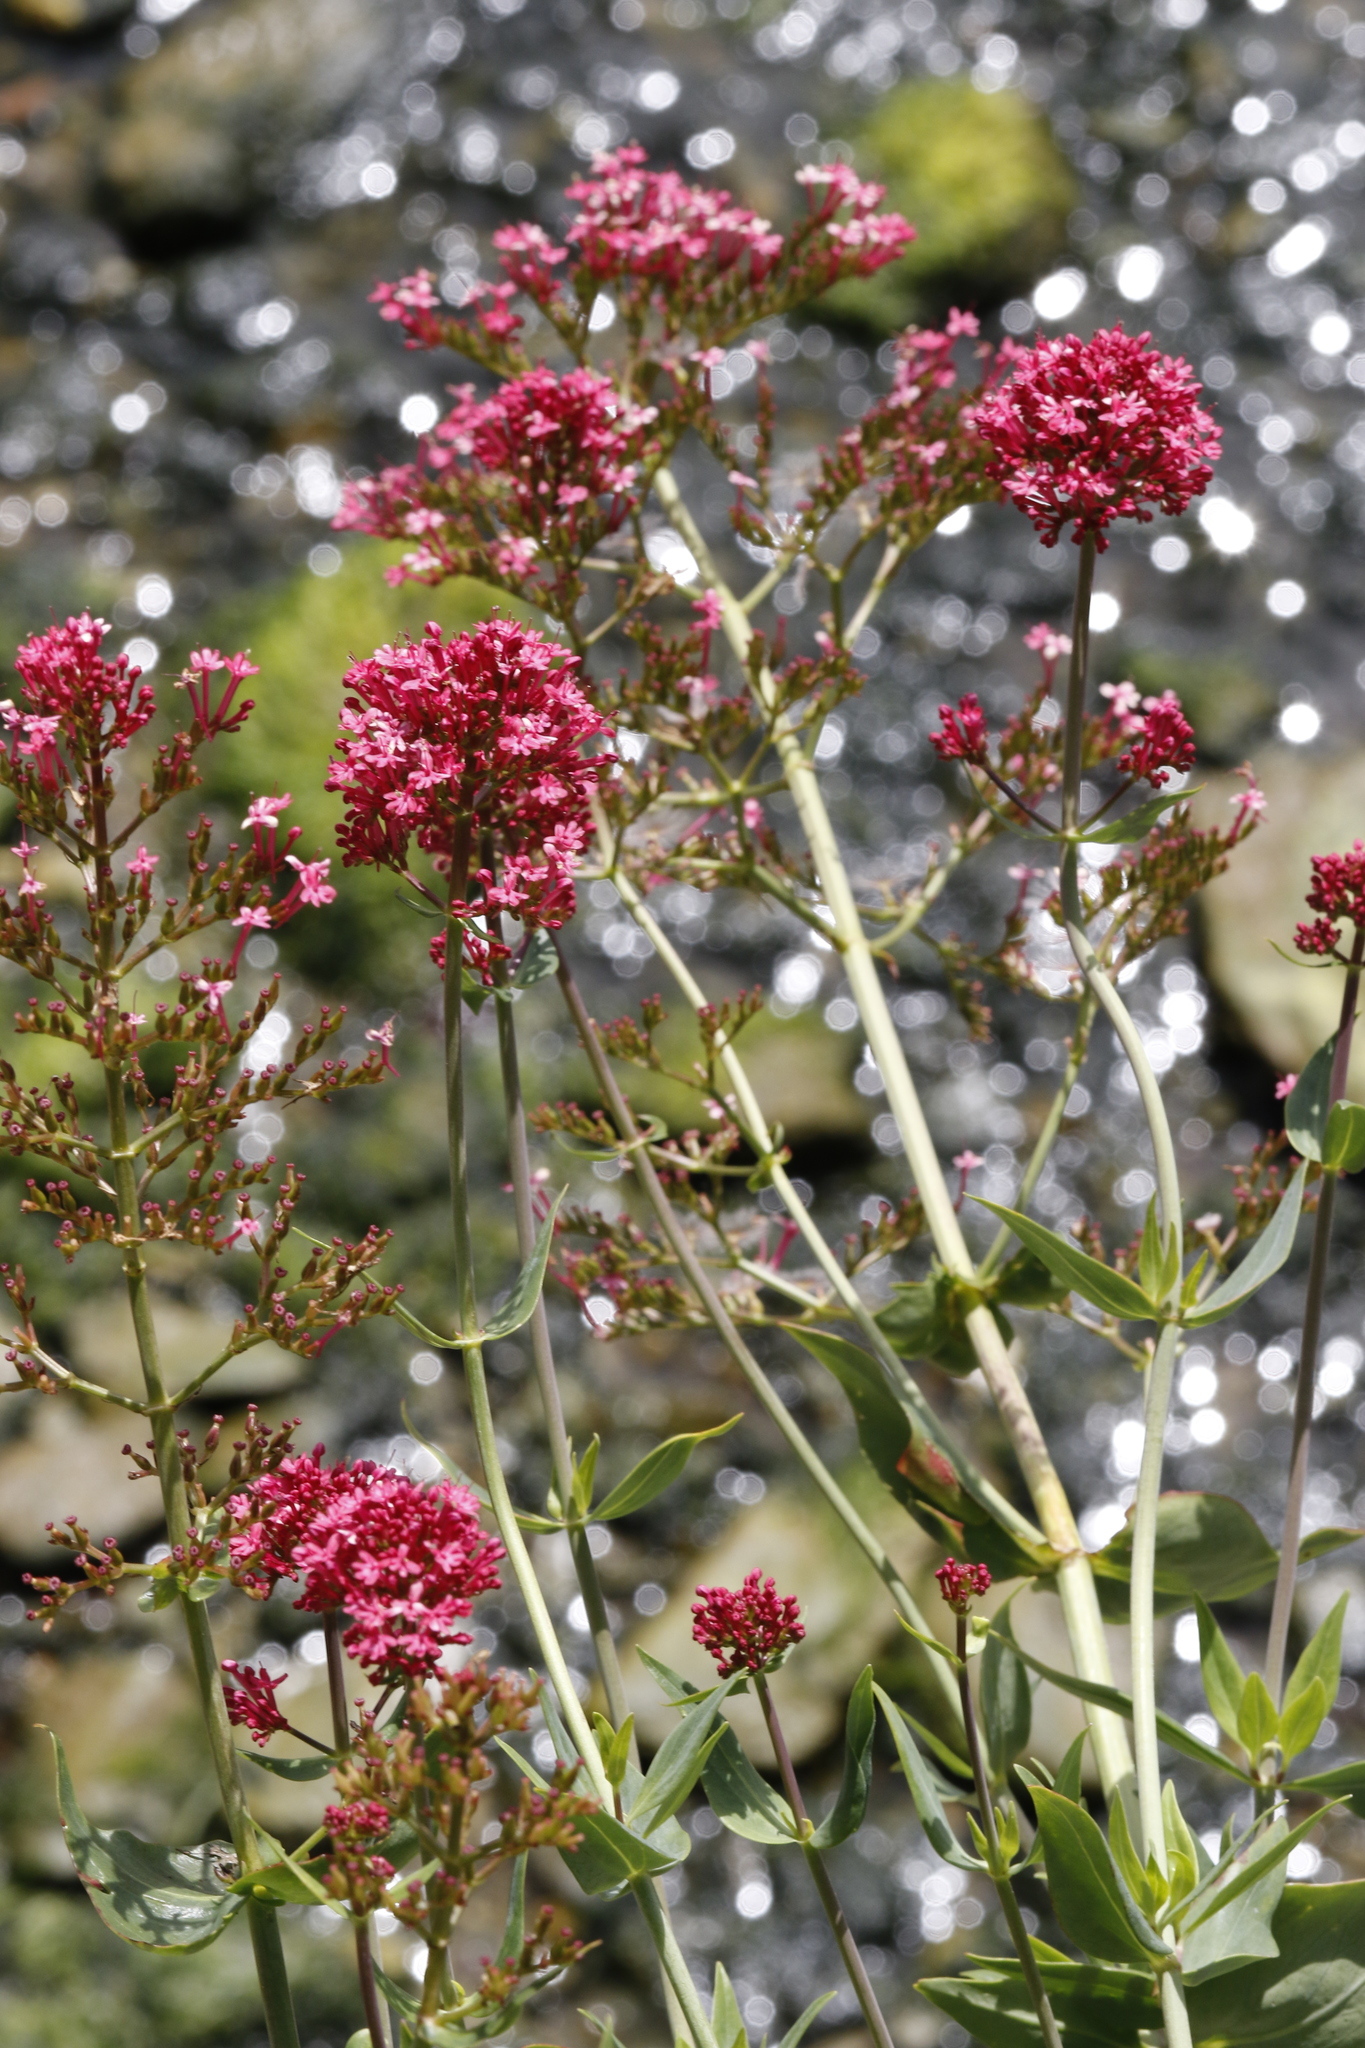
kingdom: Plantae
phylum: Tracheophyta
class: Magnoliopsida
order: Dipsacales
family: Caprifoliaceae
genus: Centranthus
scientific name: Centranthus ruber
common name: Red valerian
